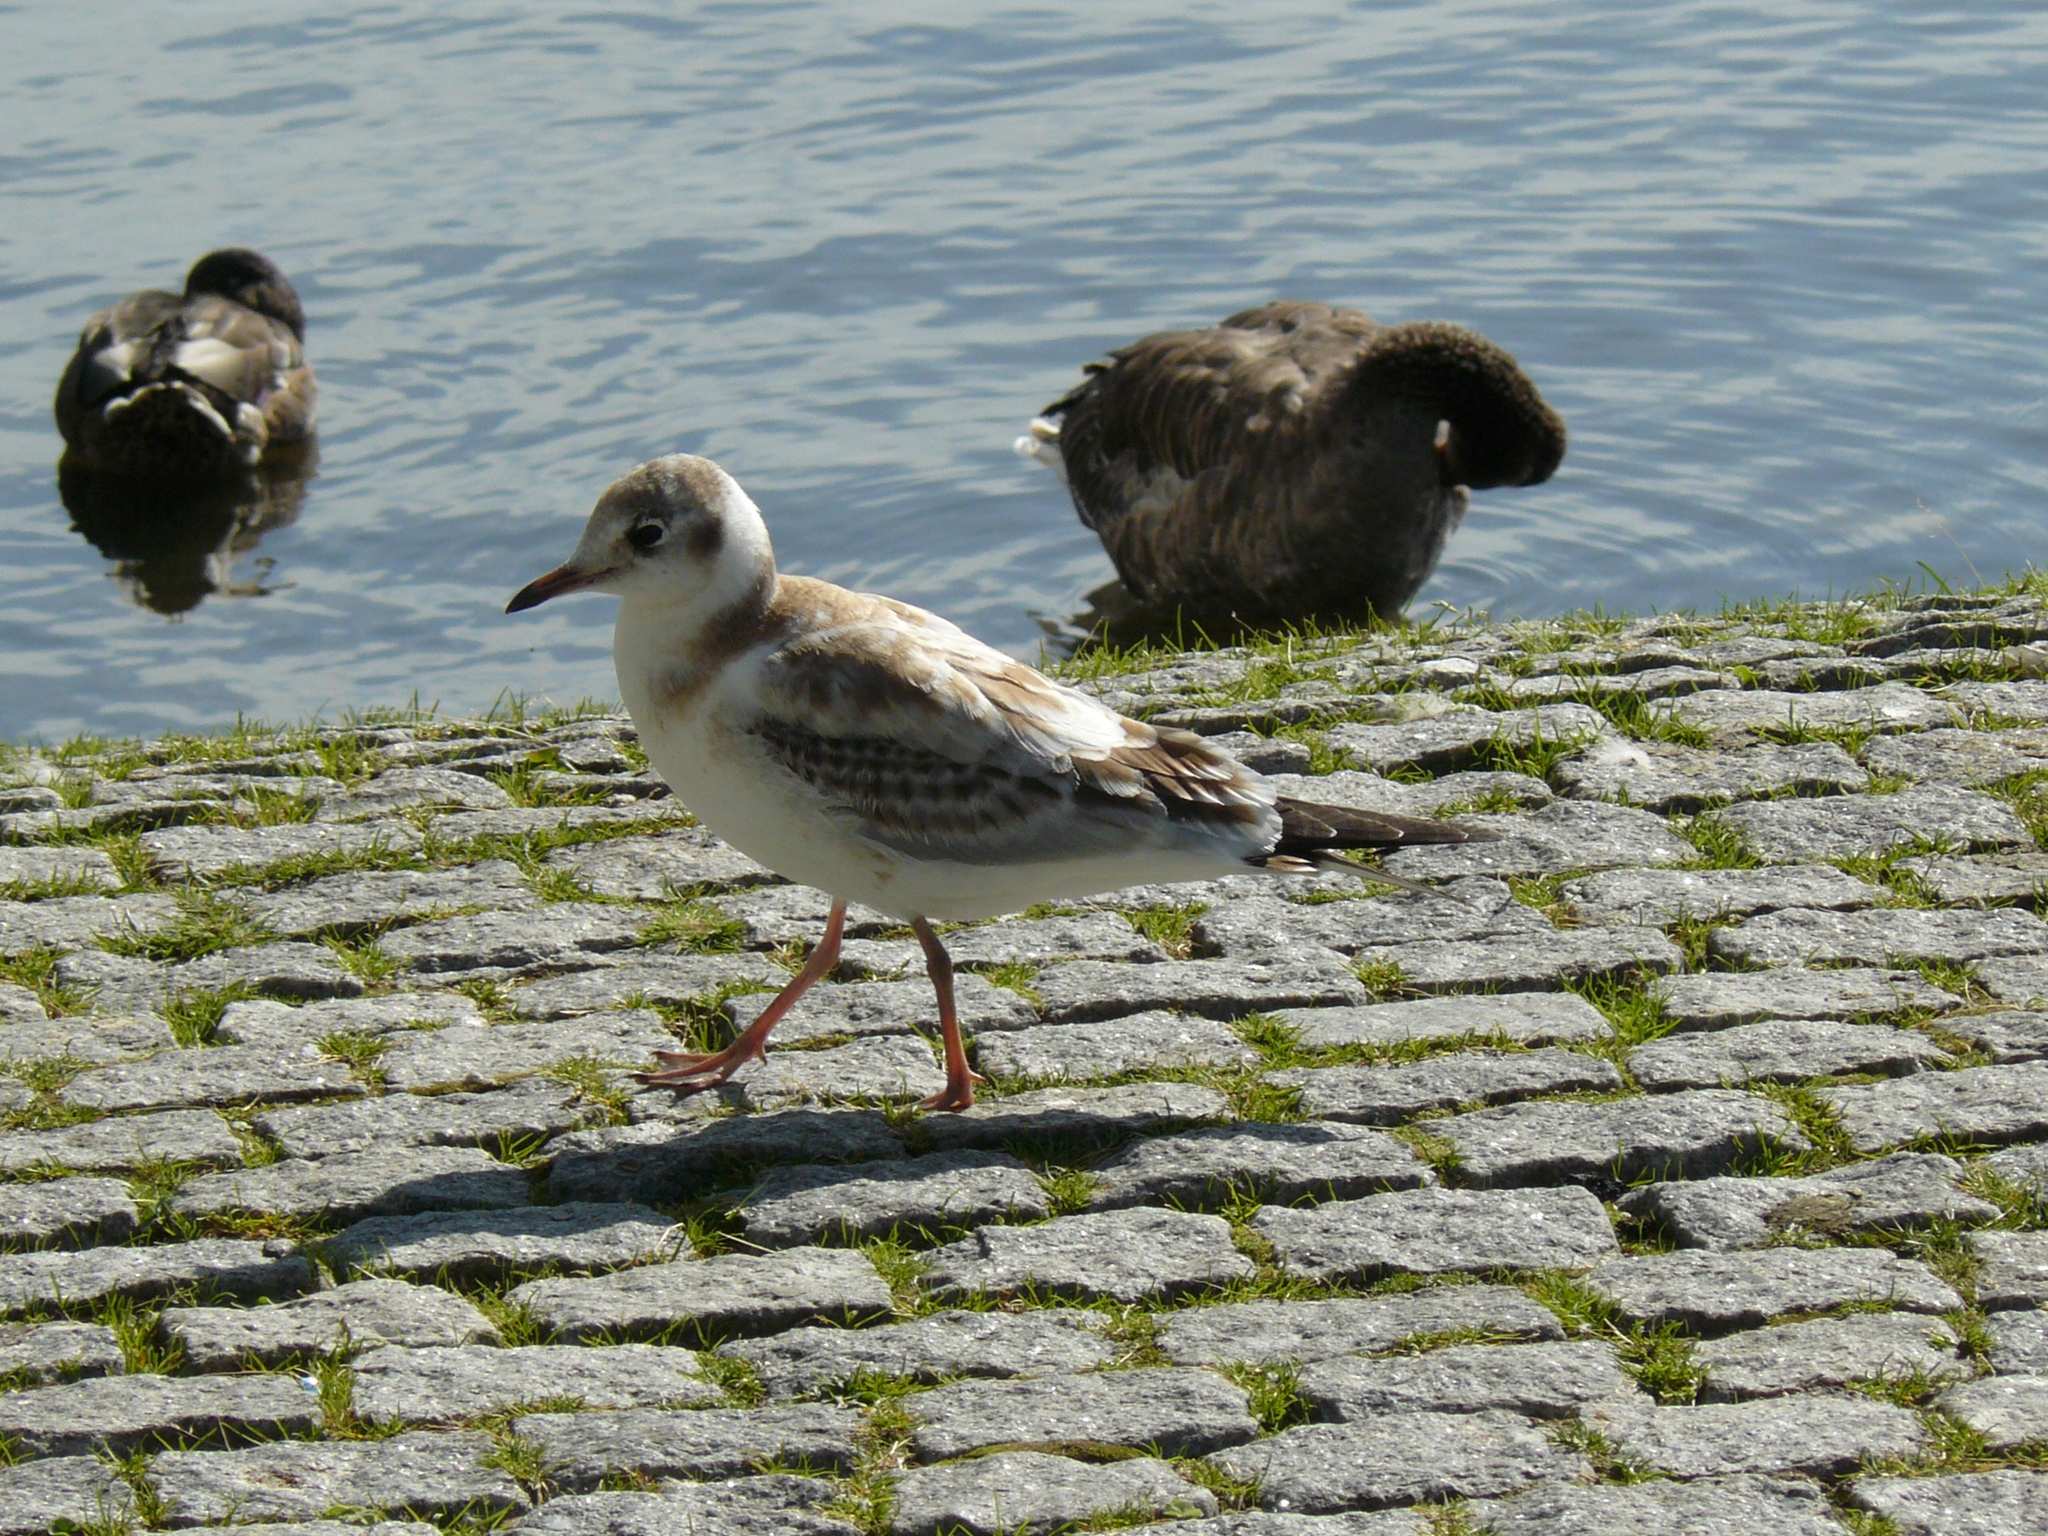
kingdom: Animalia
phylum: Chordata
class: Aves
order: Charadriiformes
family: Laridae
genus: Chroicocephalus
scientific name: Chroicocephalus ridibundus
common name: Black-headed gull
